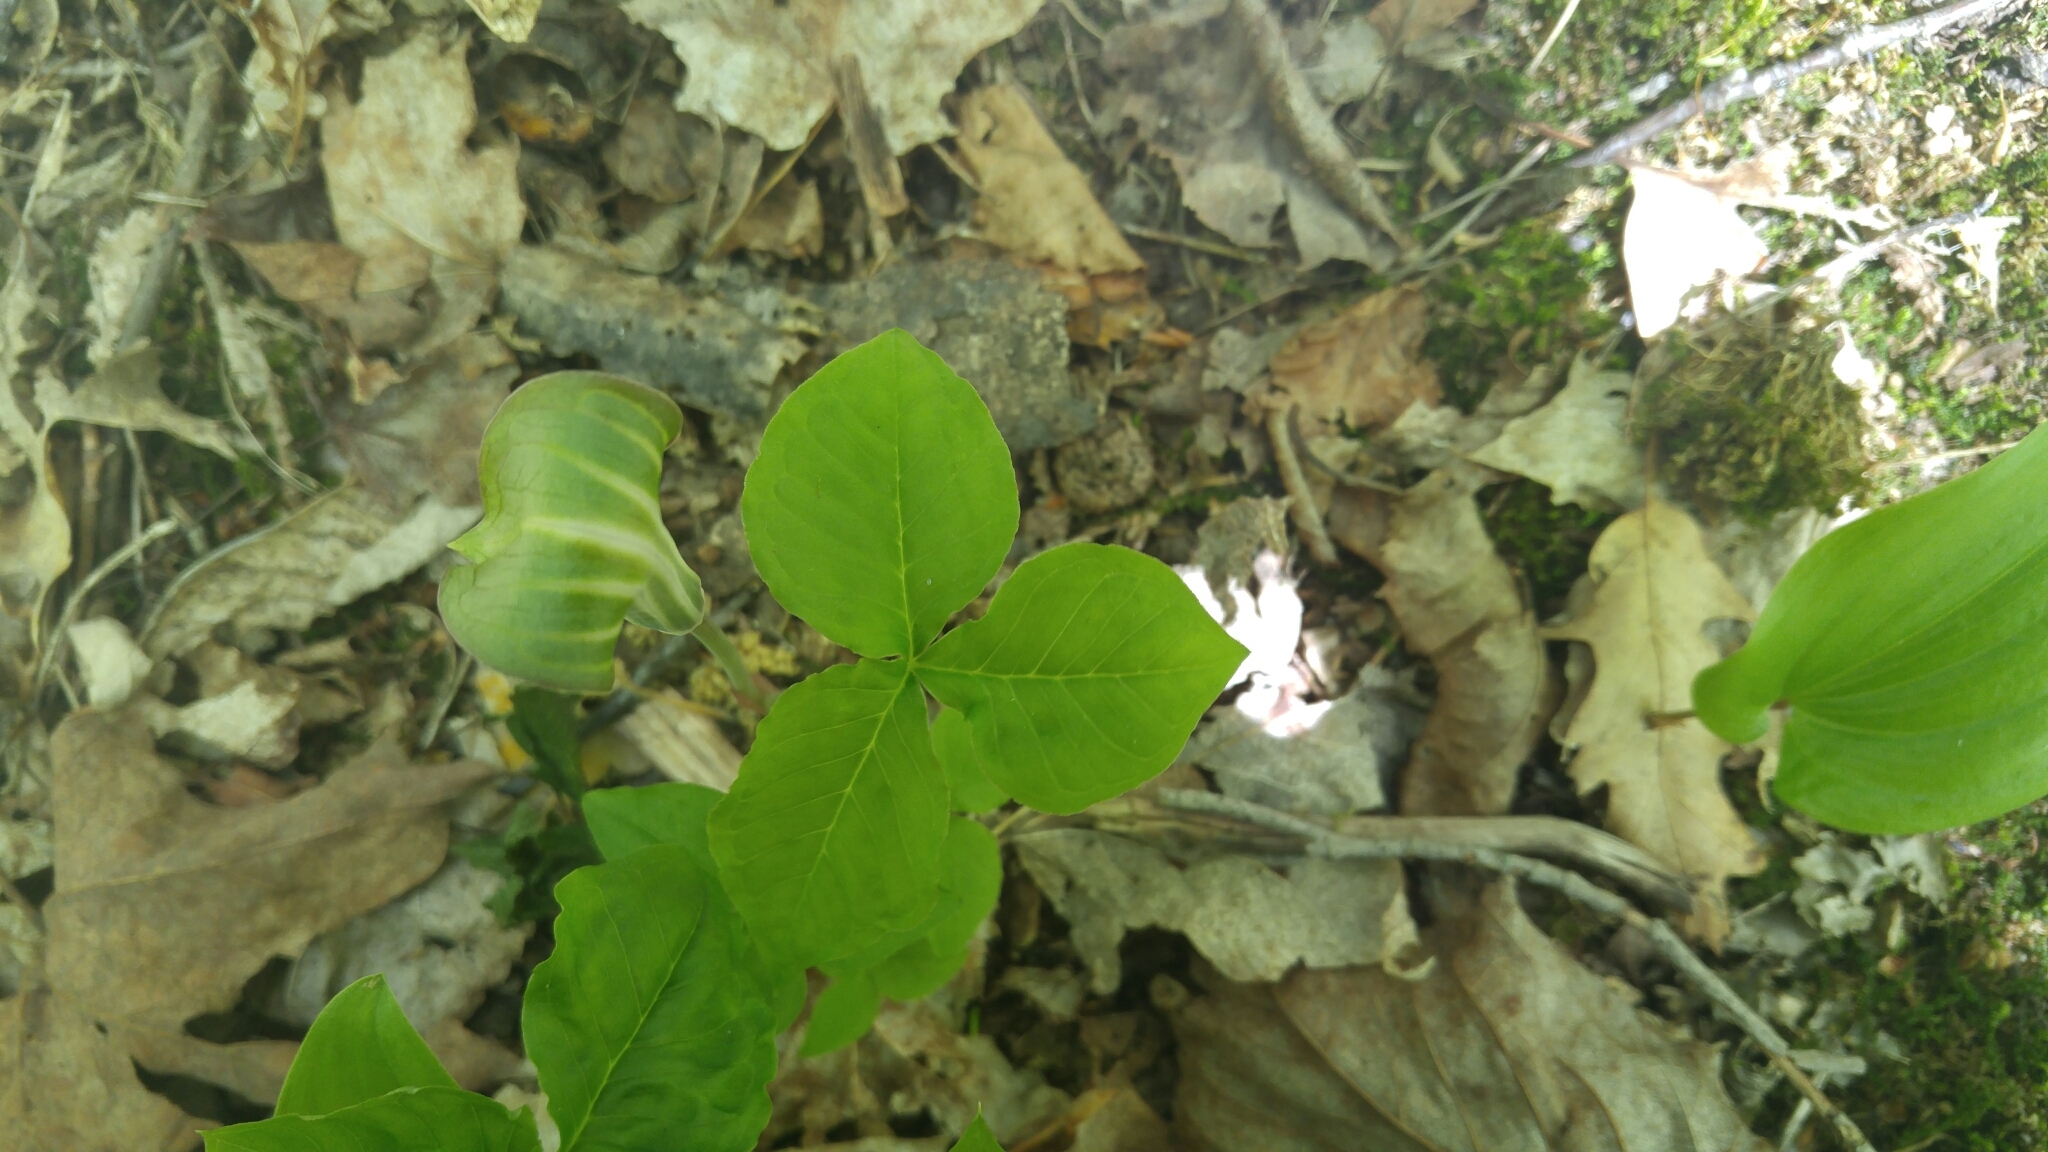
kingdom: Plantae
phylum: Tracheophyta
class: Liliopsida
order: Alismatales
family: Araceae
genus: Arisaema
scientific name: Arisaema triphyllum
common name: Jack-in-the-pulpit
